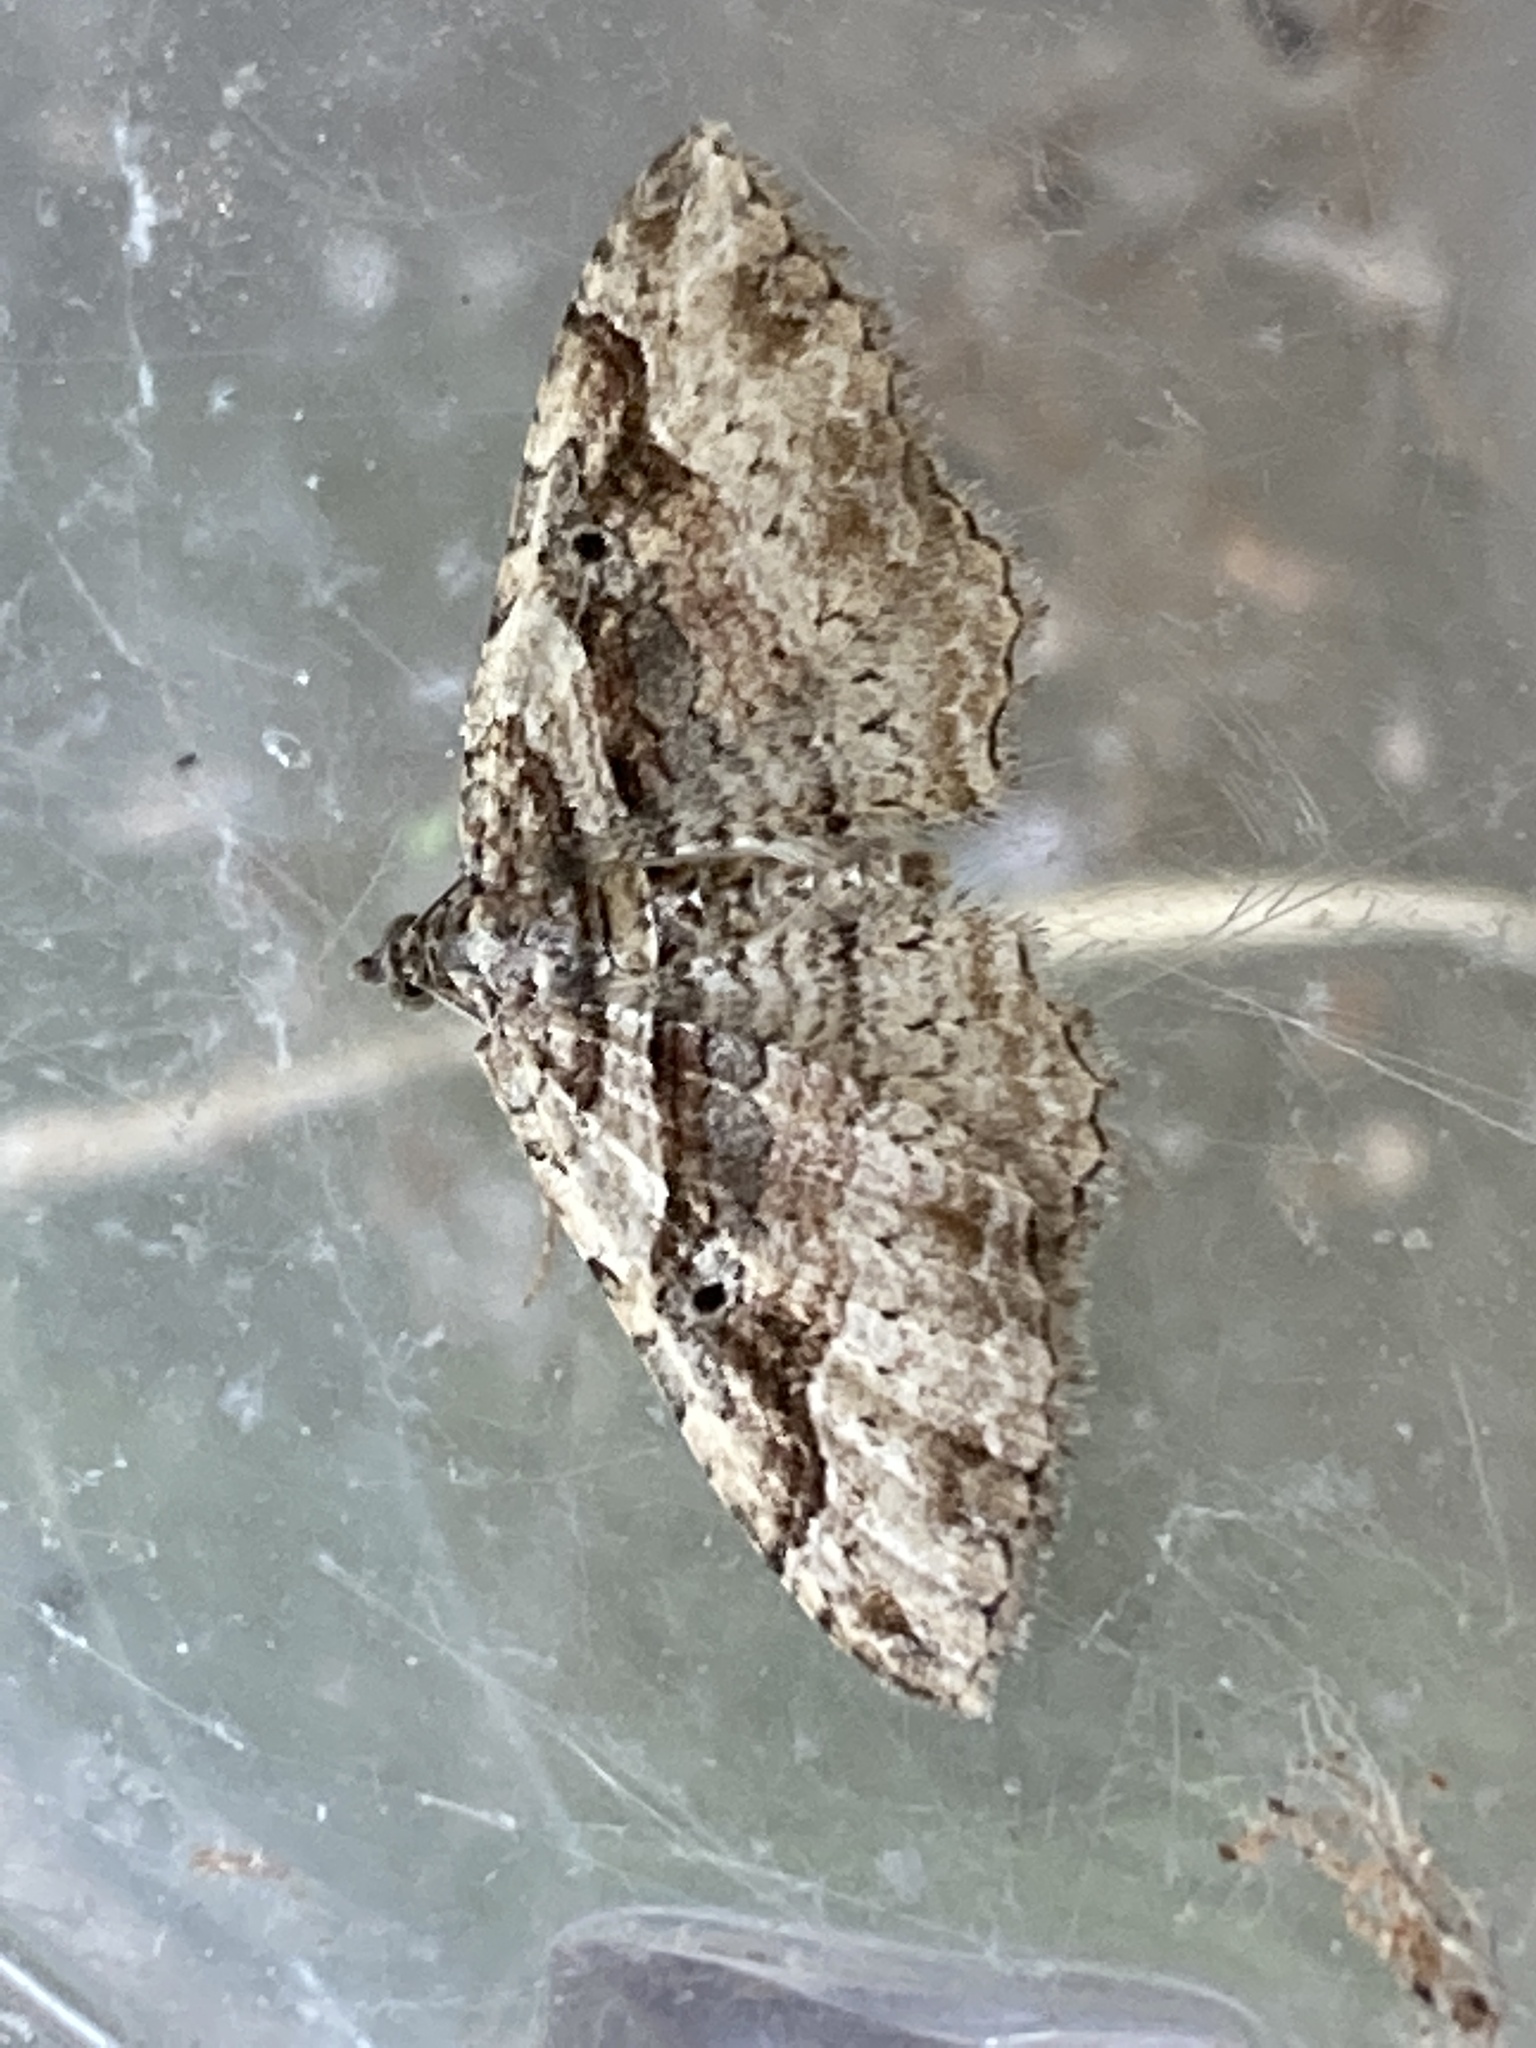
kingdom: Animalia
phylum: Arthropoda
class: Insecta
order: Lepidoptera
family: Geometridae
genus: Costaconvexa
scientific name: Costaconvexa centrostrigaria
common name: Bent-line carpet
